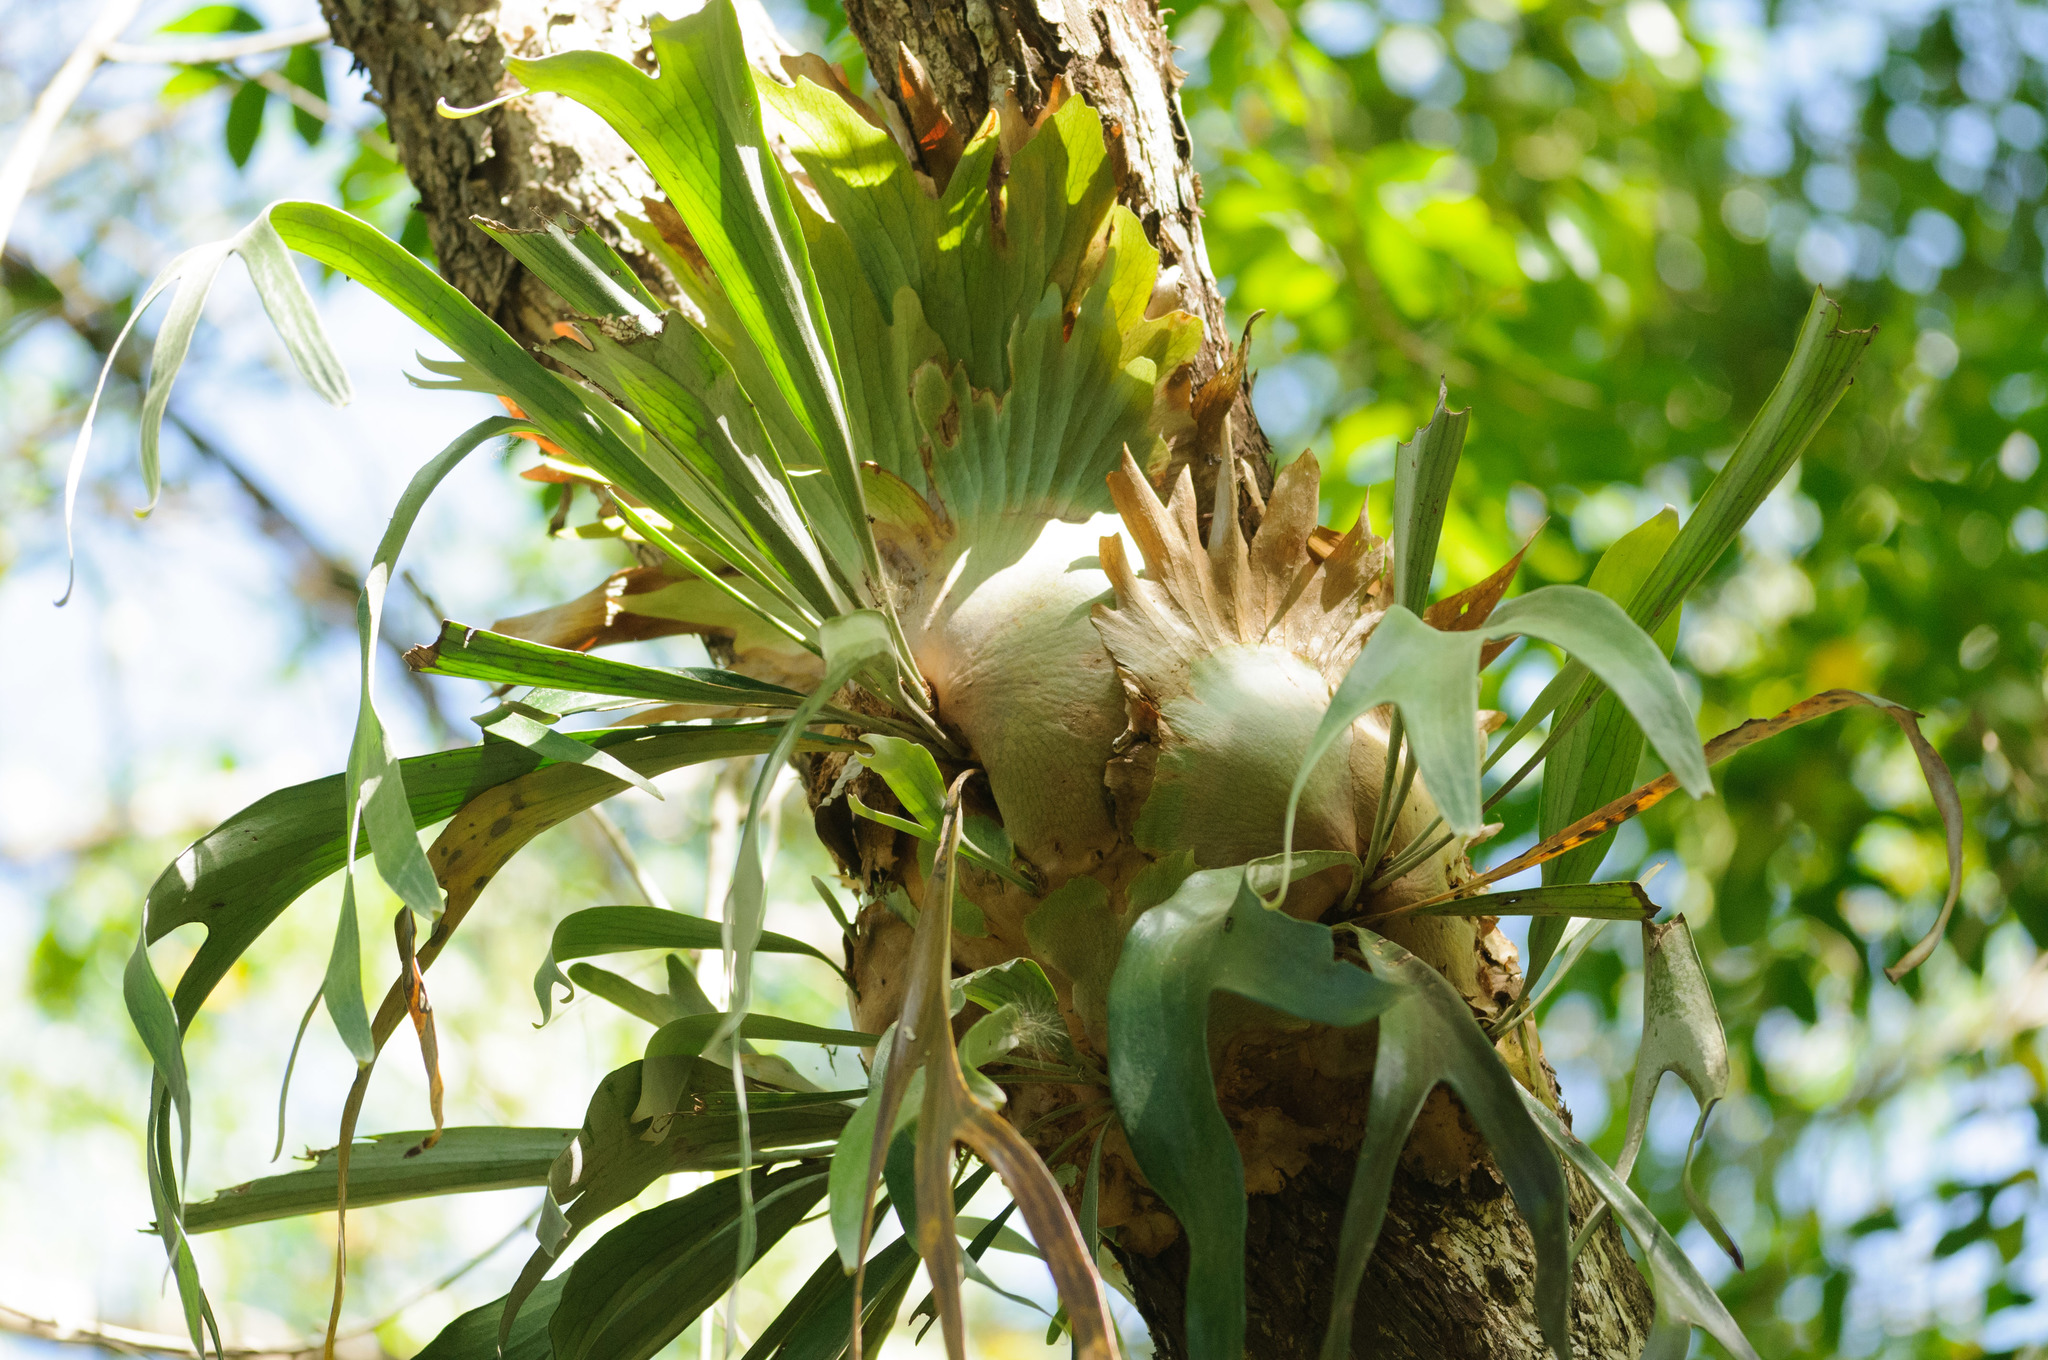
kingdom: Plantae
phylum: Tracheophyta
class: Polypodiopsida
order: Polypodiales
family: Polypodiaceae
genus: Platycerium
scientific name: Platycerium bifurcatum
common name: Elkhorn fern
